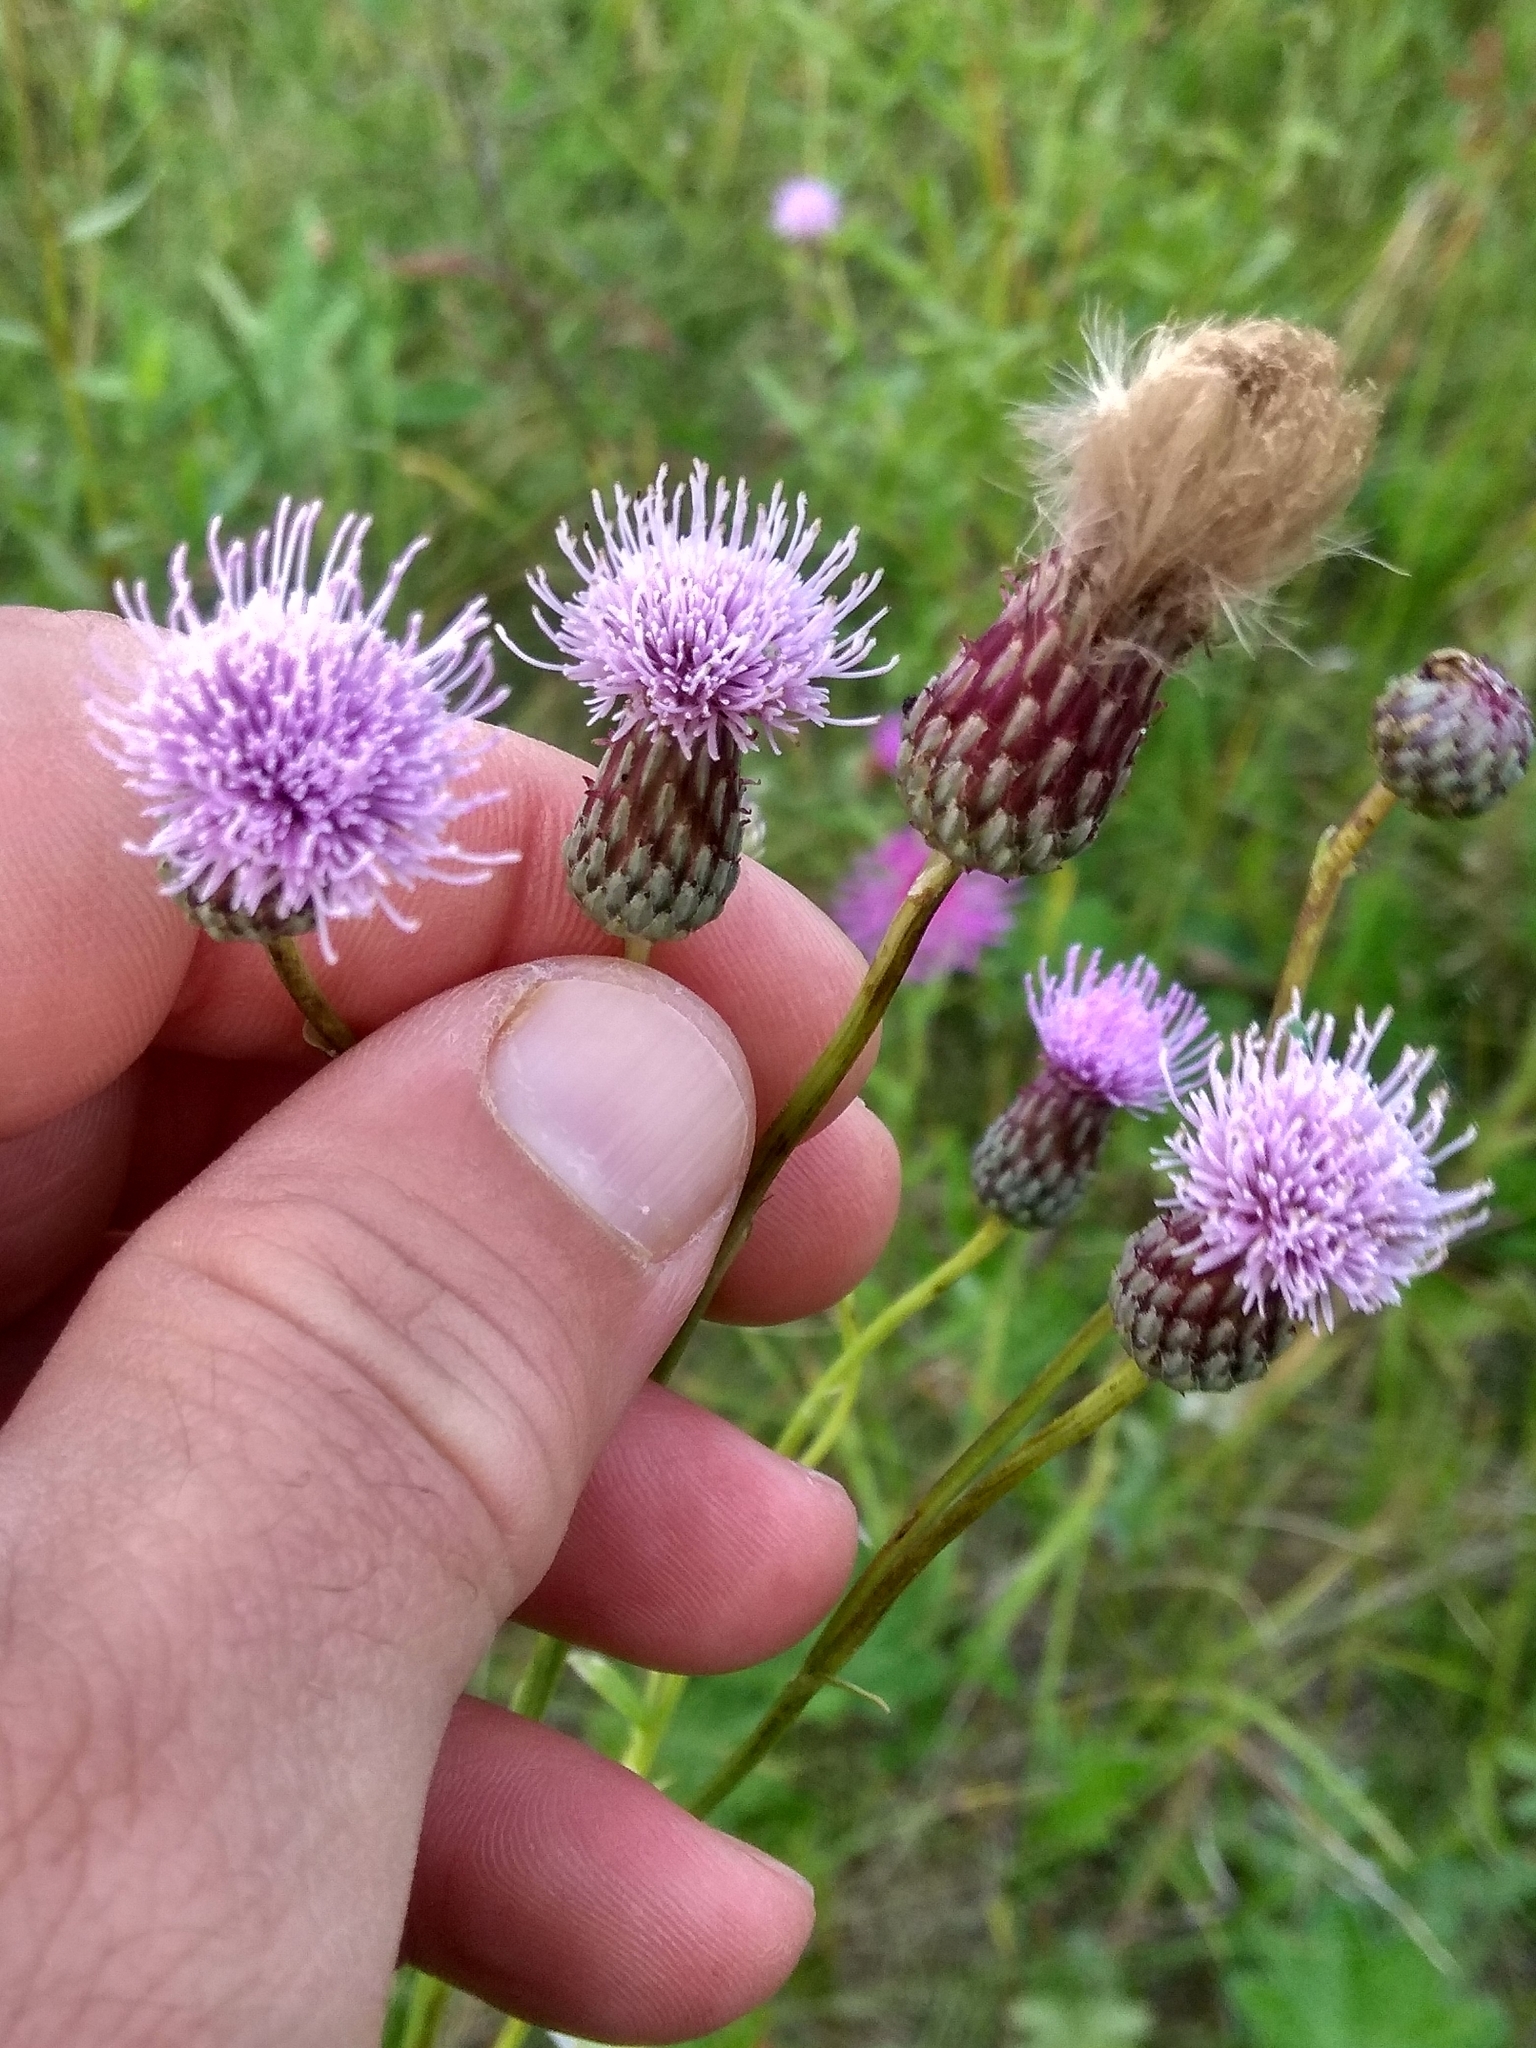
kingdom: Plantae
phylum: Tracheophyta
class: Magnoliopsida
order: Asterales
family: Asteraceae
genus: Cirsium
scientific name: Cirsium arvense
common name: Creeping thistle
